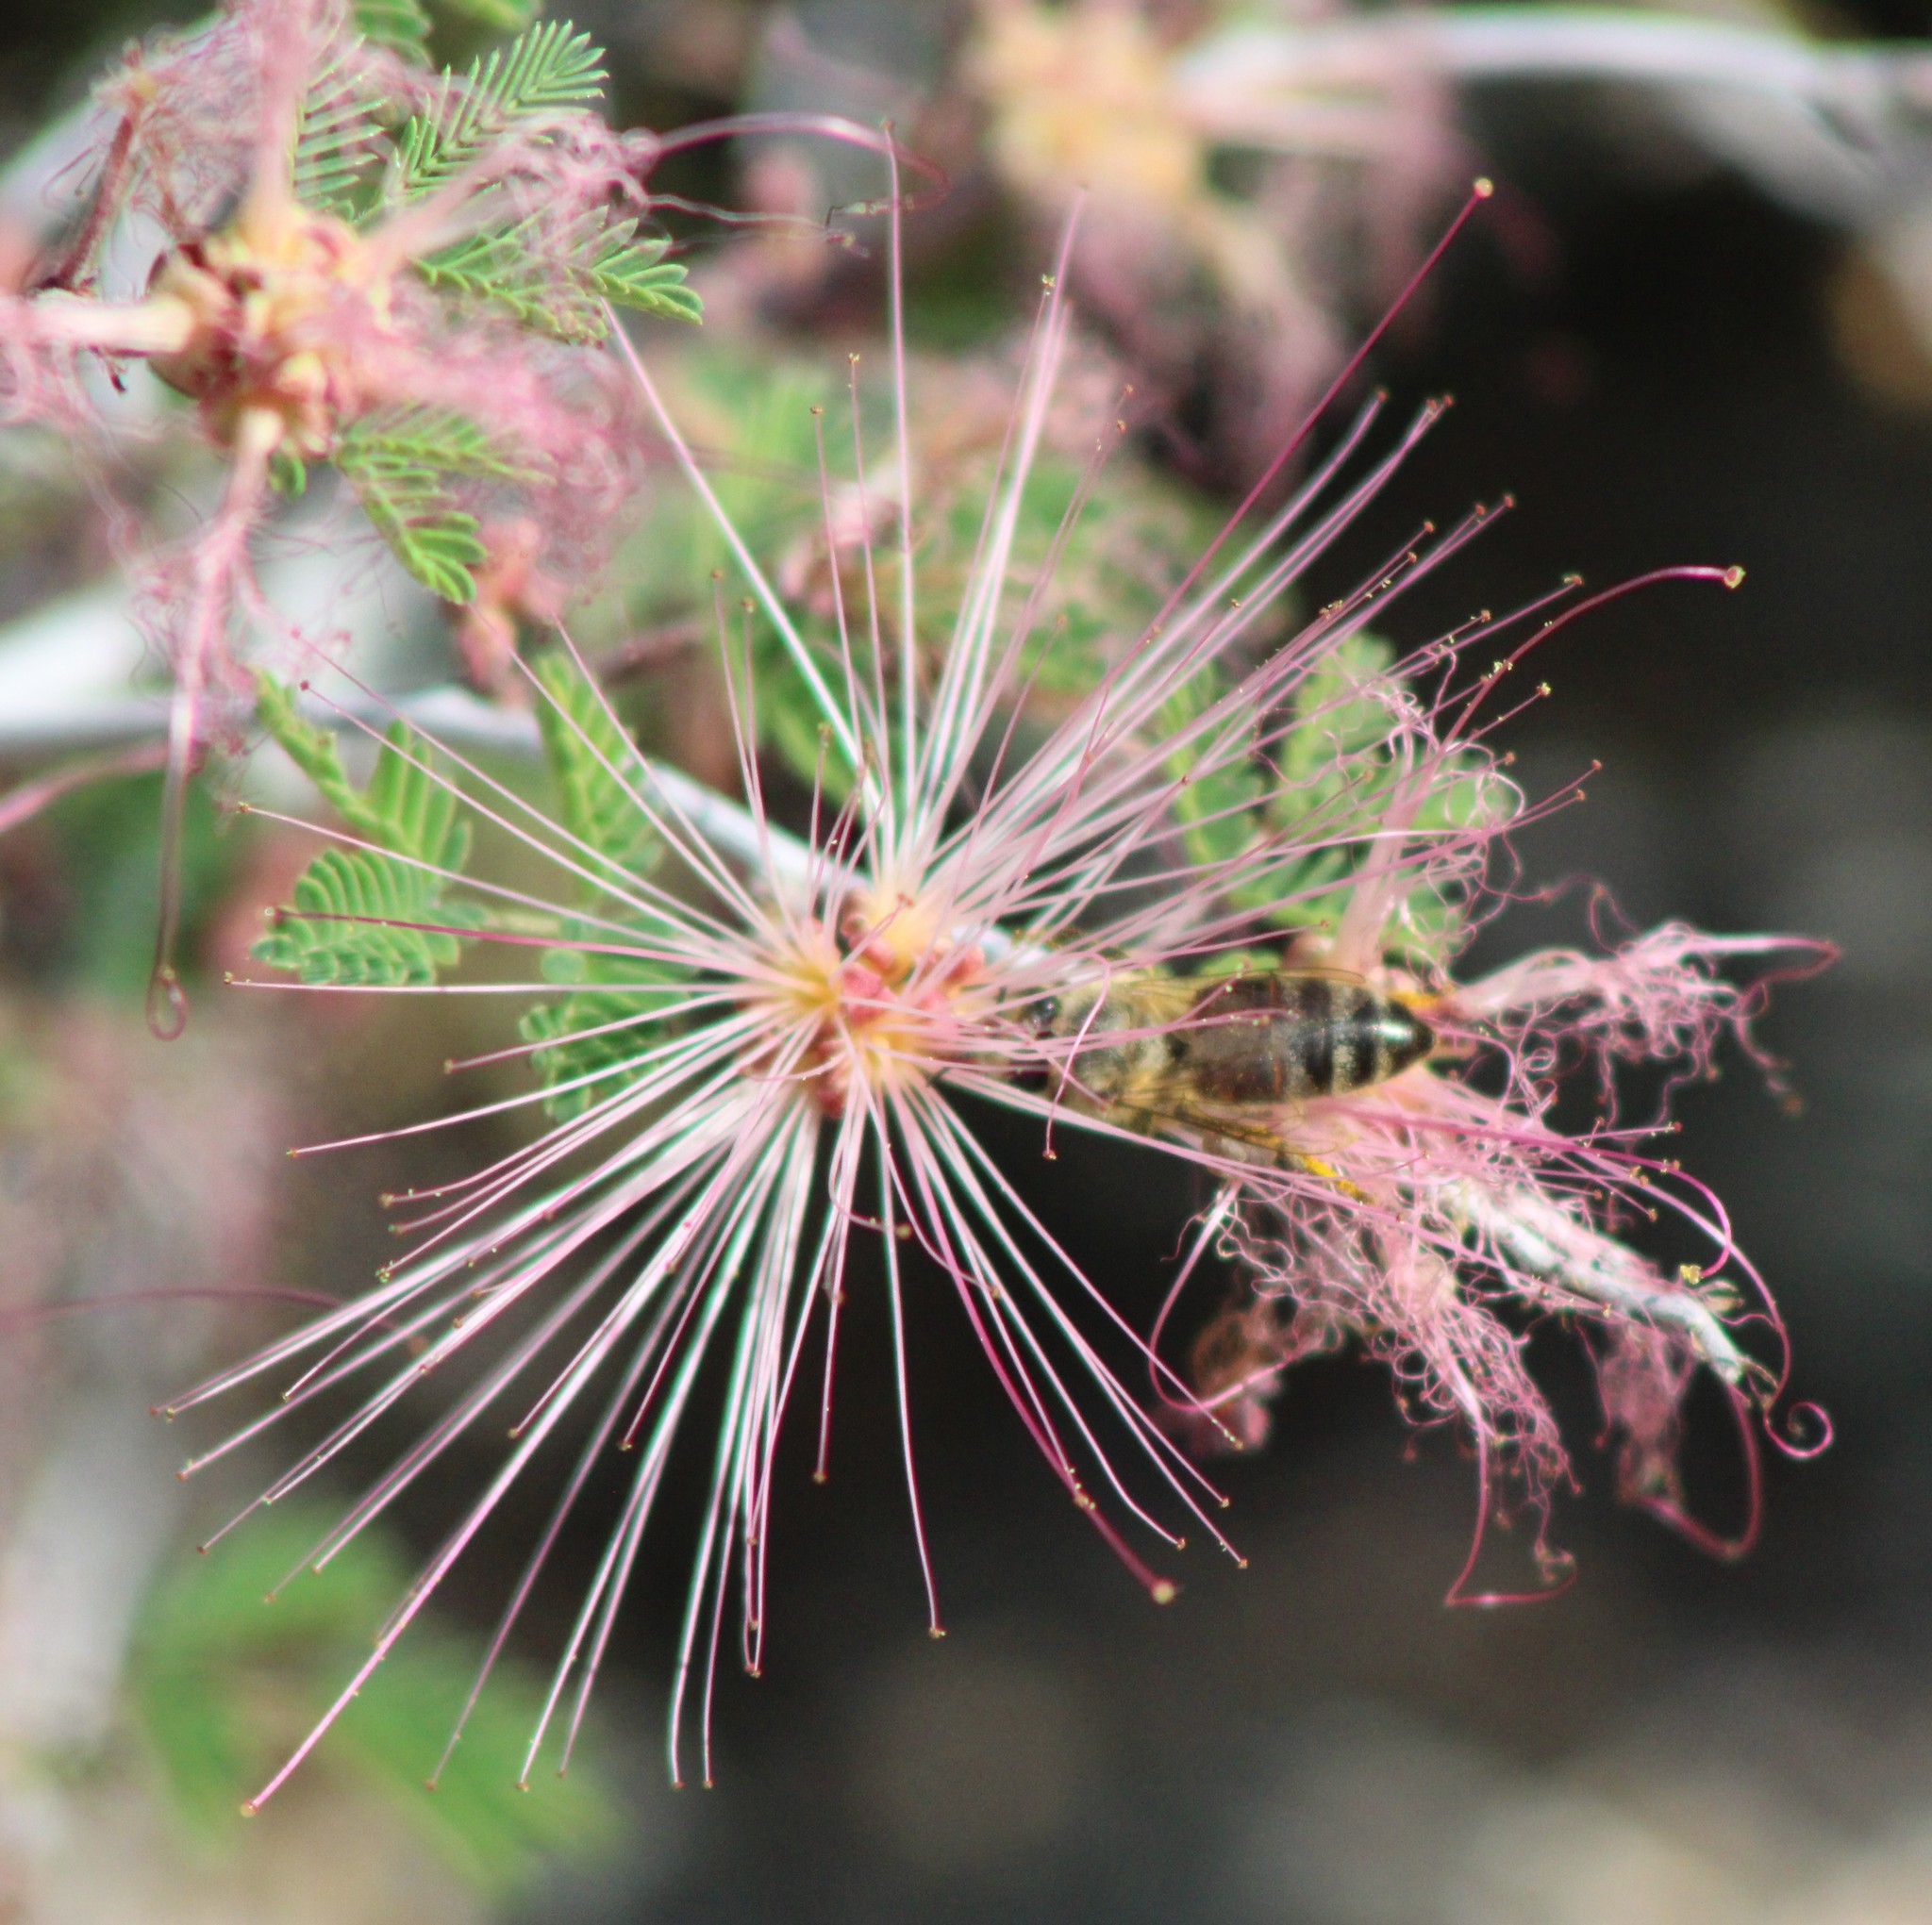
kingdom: Plantae
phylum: Tracheophyta
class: Magnoliopsida
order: Fabales
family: Fabaceae
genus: Calliandra
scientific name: Calliandra eriophylla
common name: Fairy-duster
